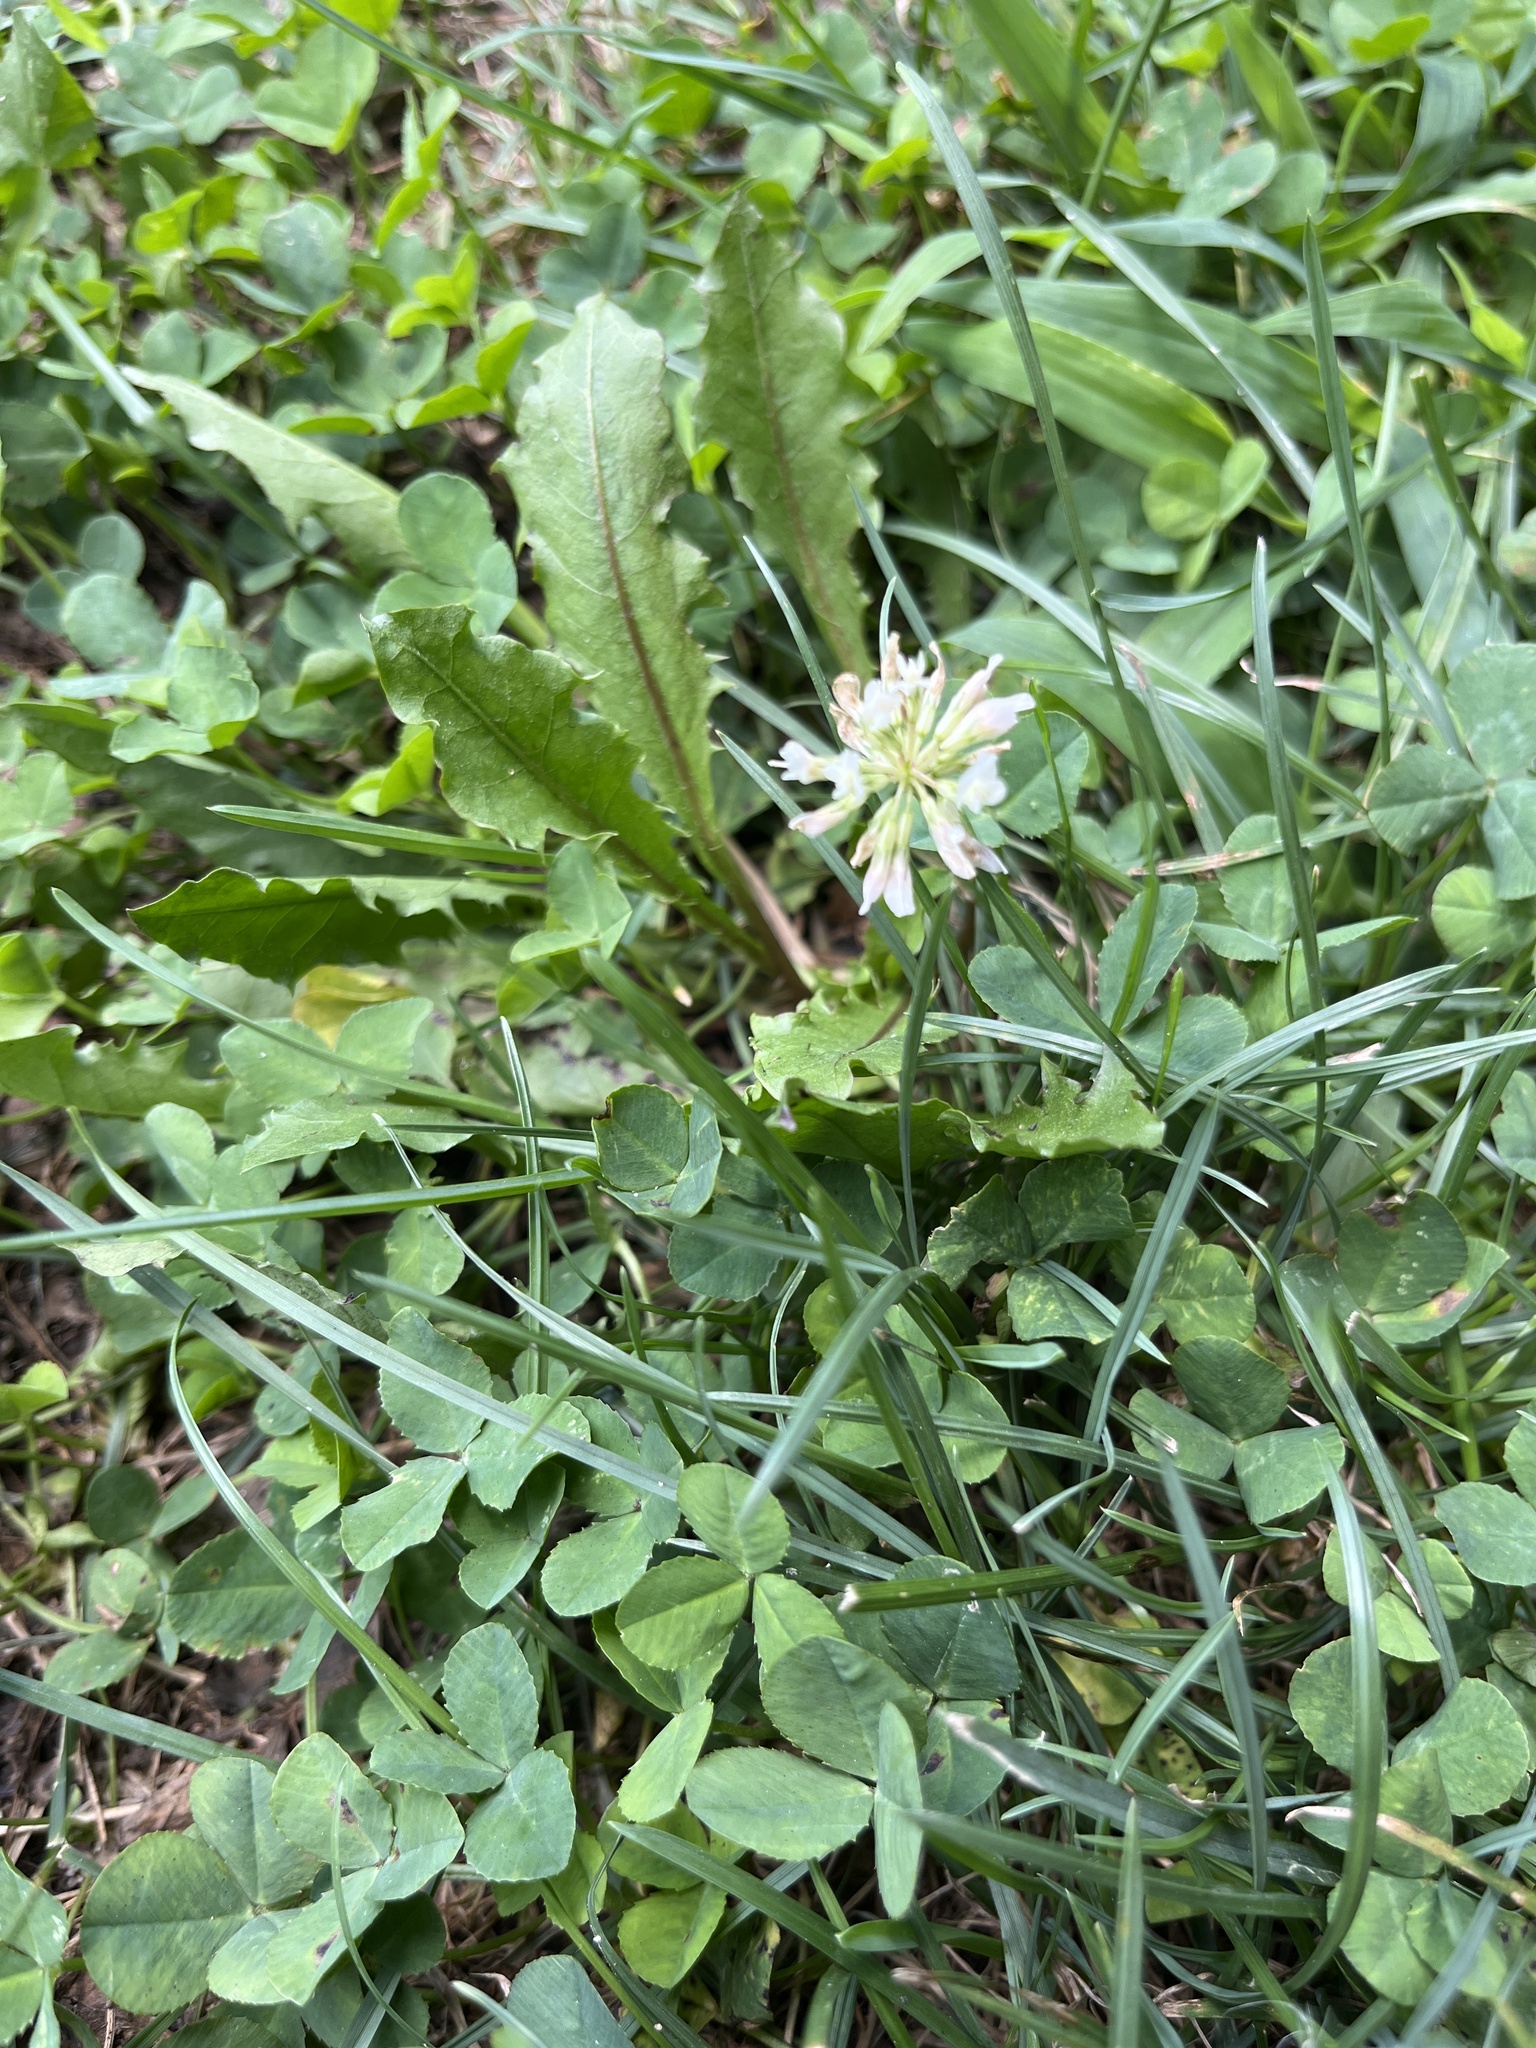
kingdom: Plantae
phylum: Tracheophyta
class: Magnoliopsida
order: Fabales
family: Fabaceae
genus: Trifolium
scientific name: Trifolium repens
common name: White clover
